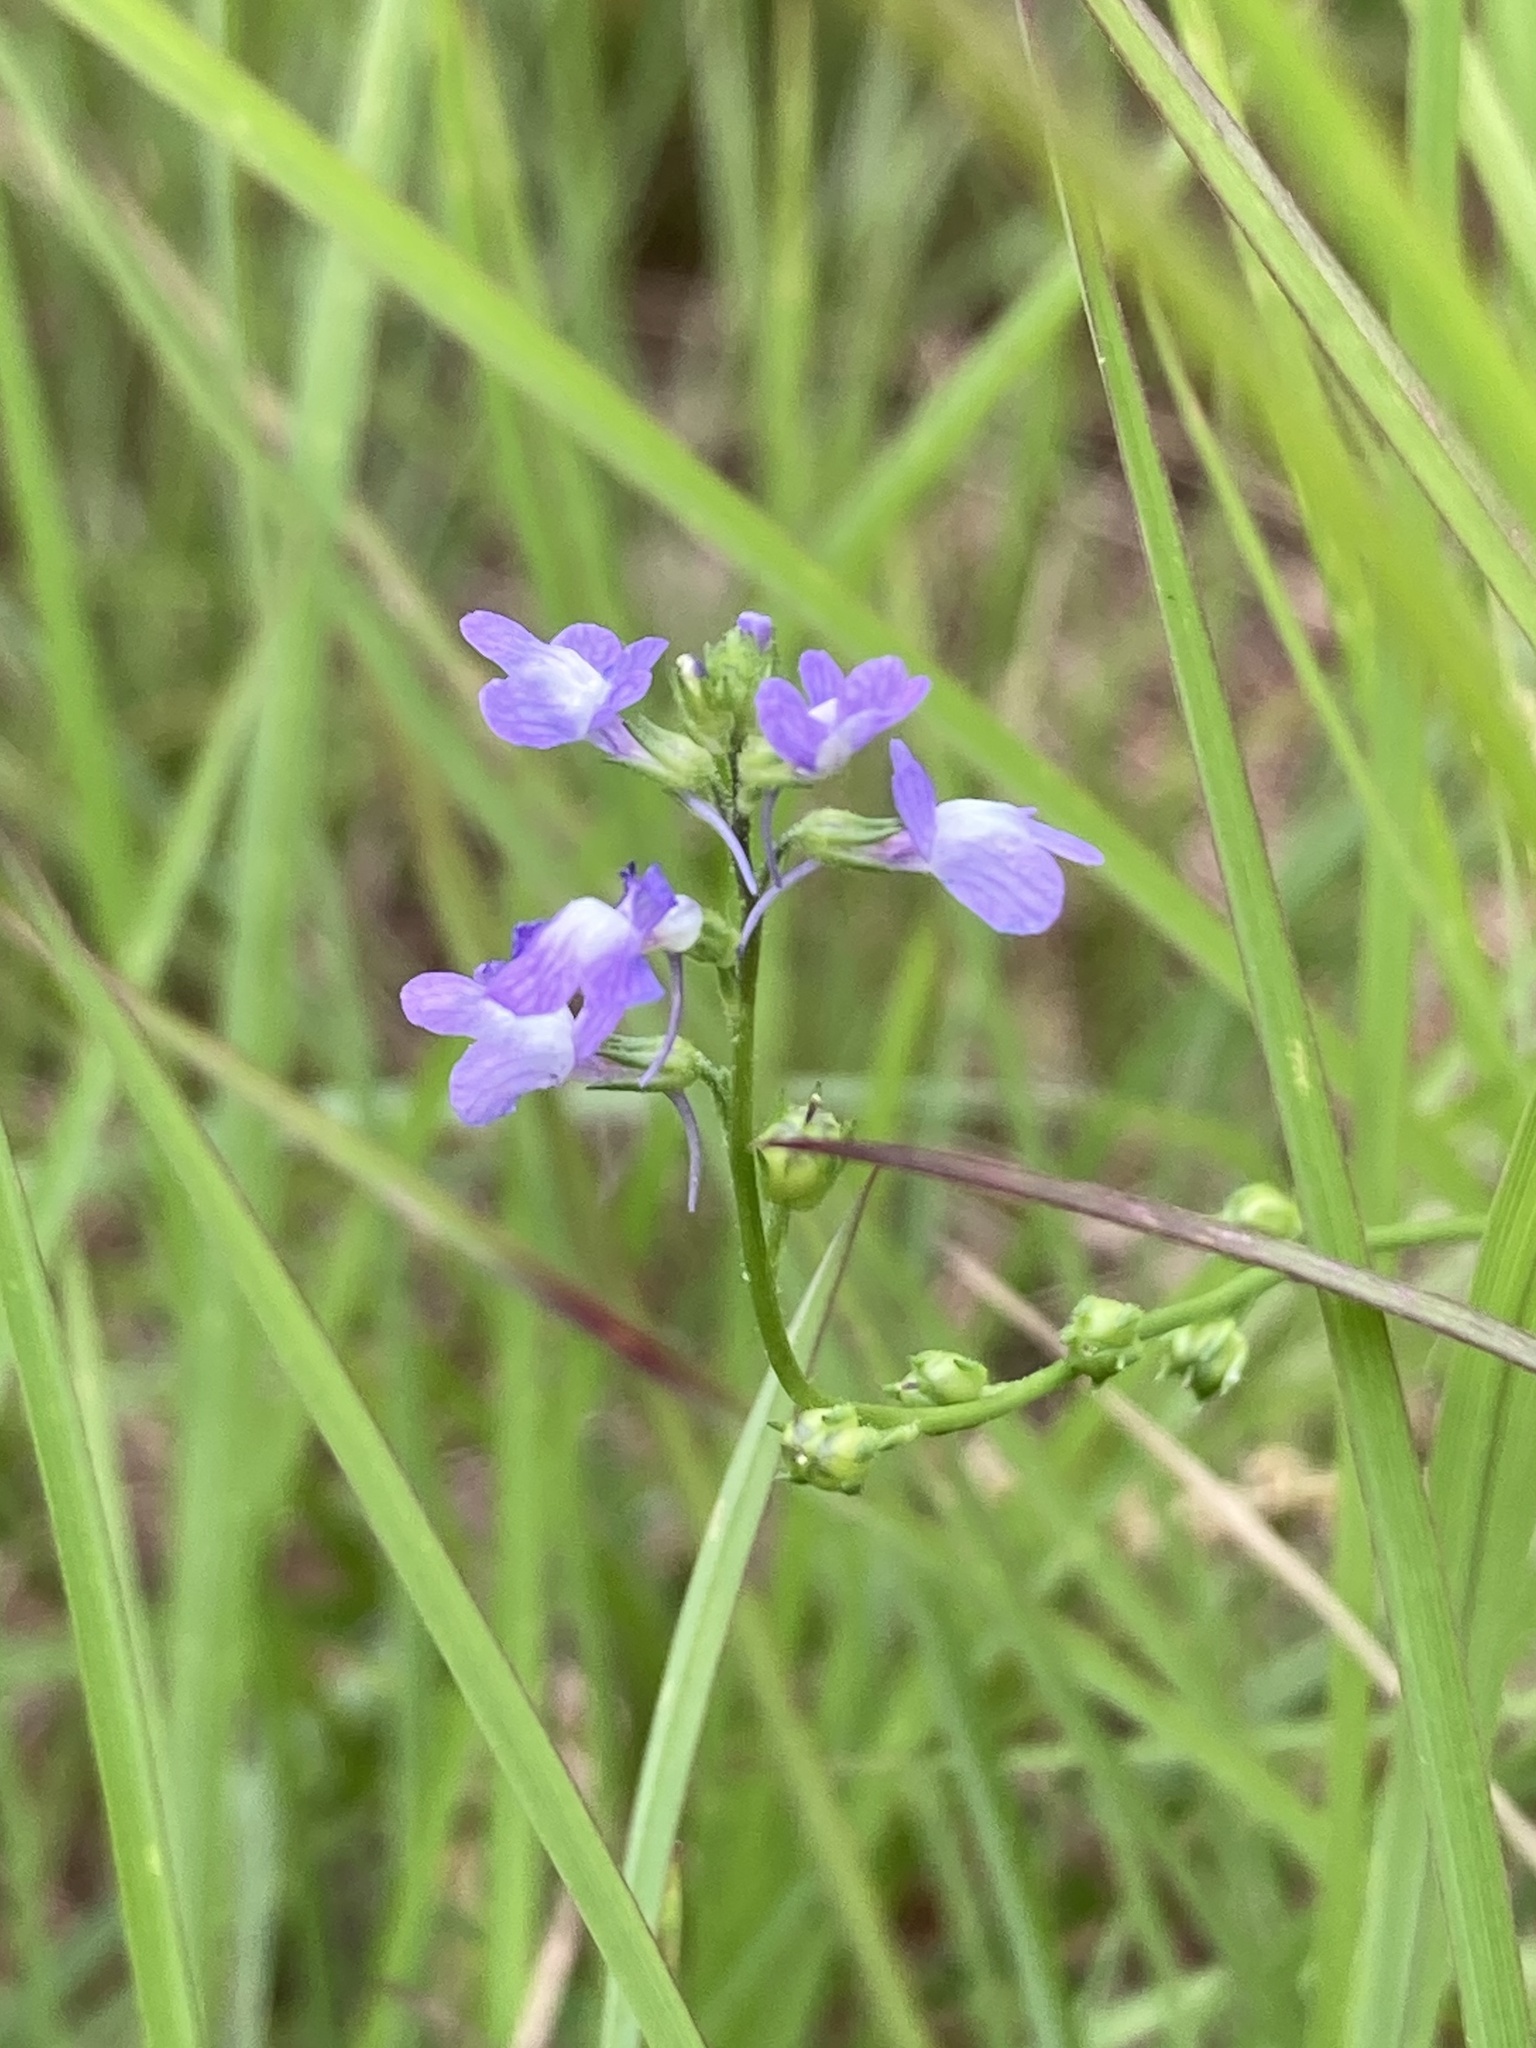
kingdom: Plantae
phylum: Tracheophyta
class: Magnoliopsida
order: Lamiales
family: Plantaginaceae
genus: Nuttallanthus
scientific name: Nuttallanthus canadensis
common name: Blue toadflax
